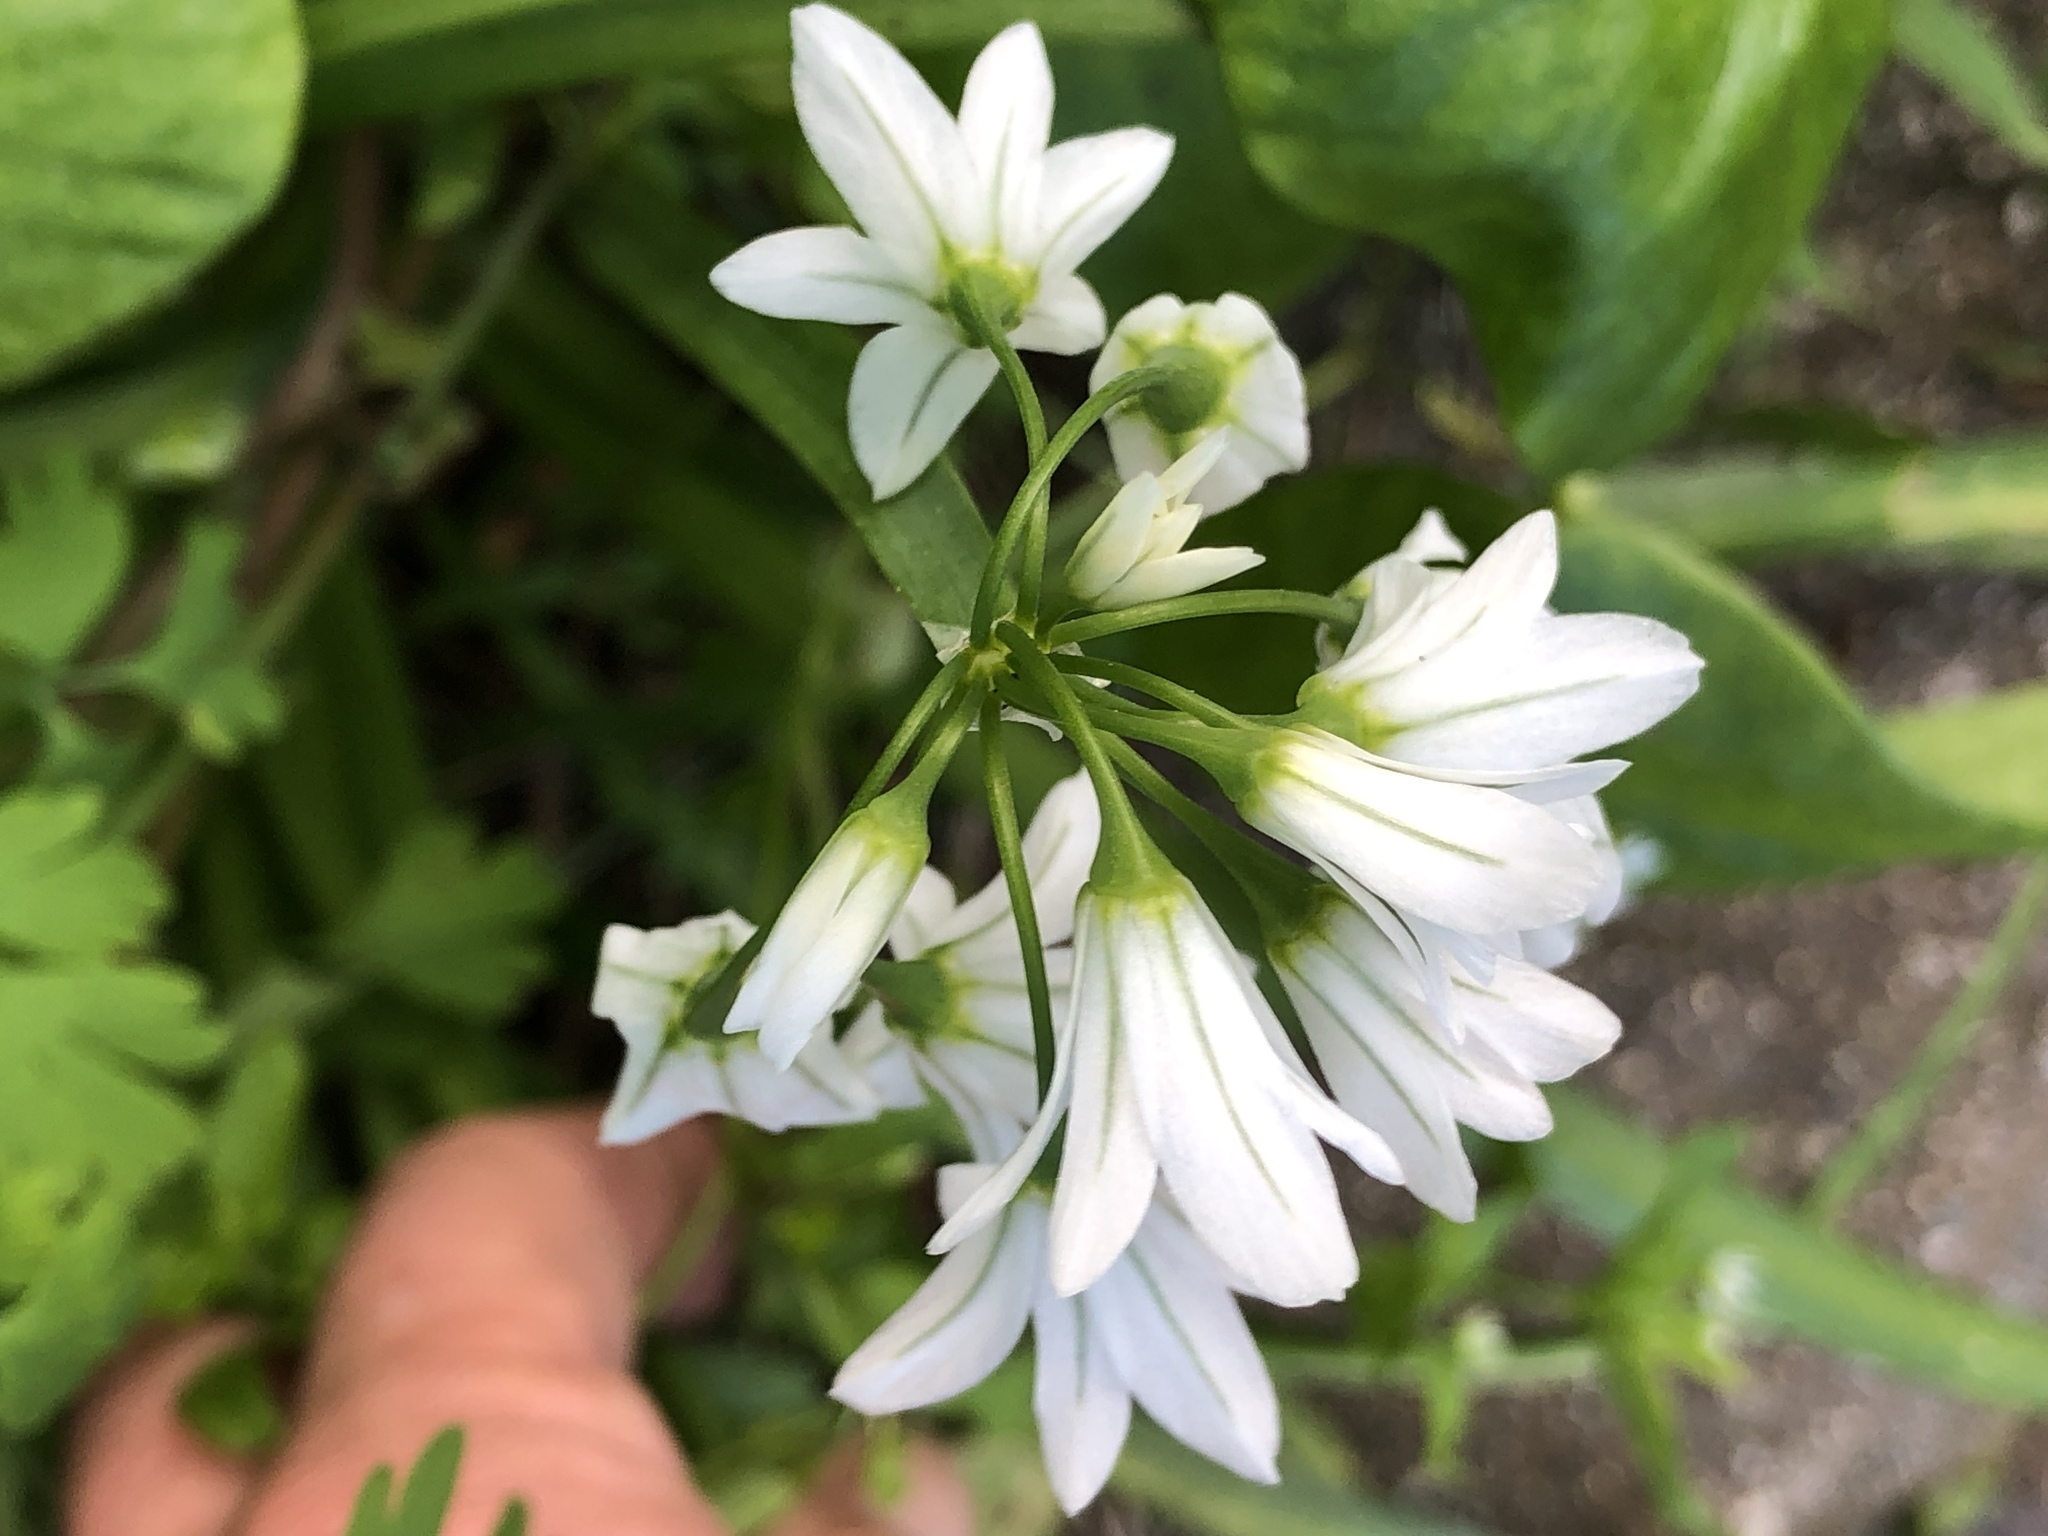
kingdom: Plantae
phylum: Tracheophyta
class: Liliopsida
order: Asparagales
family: Amaryllidaceae
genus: Allium
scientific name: Allium triquetrum
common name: Three-cornered garlic
